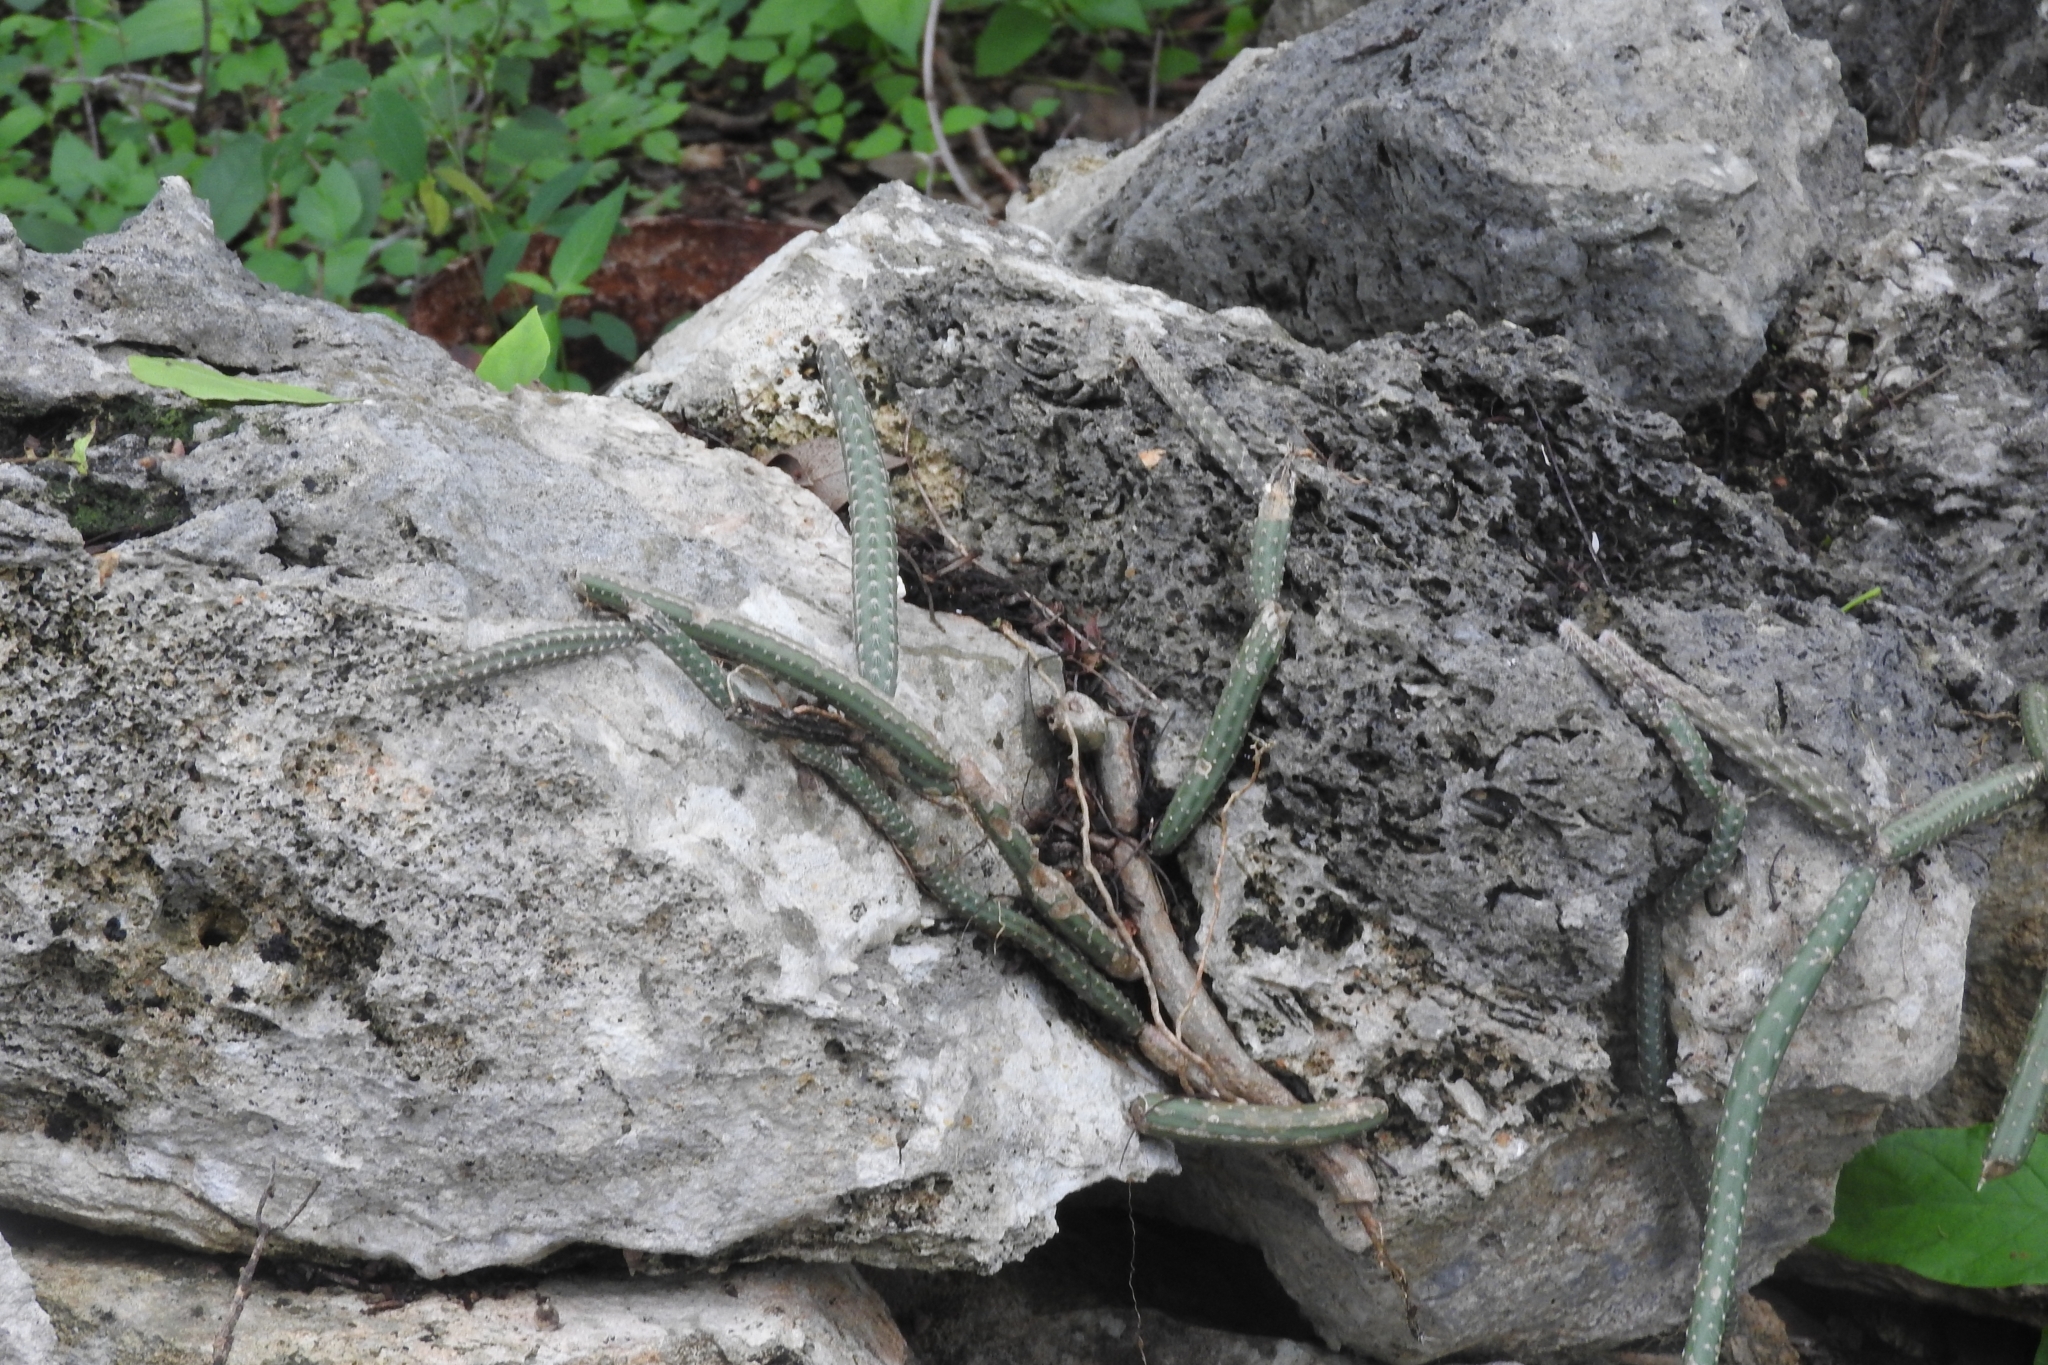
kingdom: Plantae
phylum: Tracheophyta
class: Magnoliopsida
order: Caryophyllales
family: Cactaceae
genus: Selenicereus
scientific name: Selenicereus grandiflorus
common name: Queen of the night
